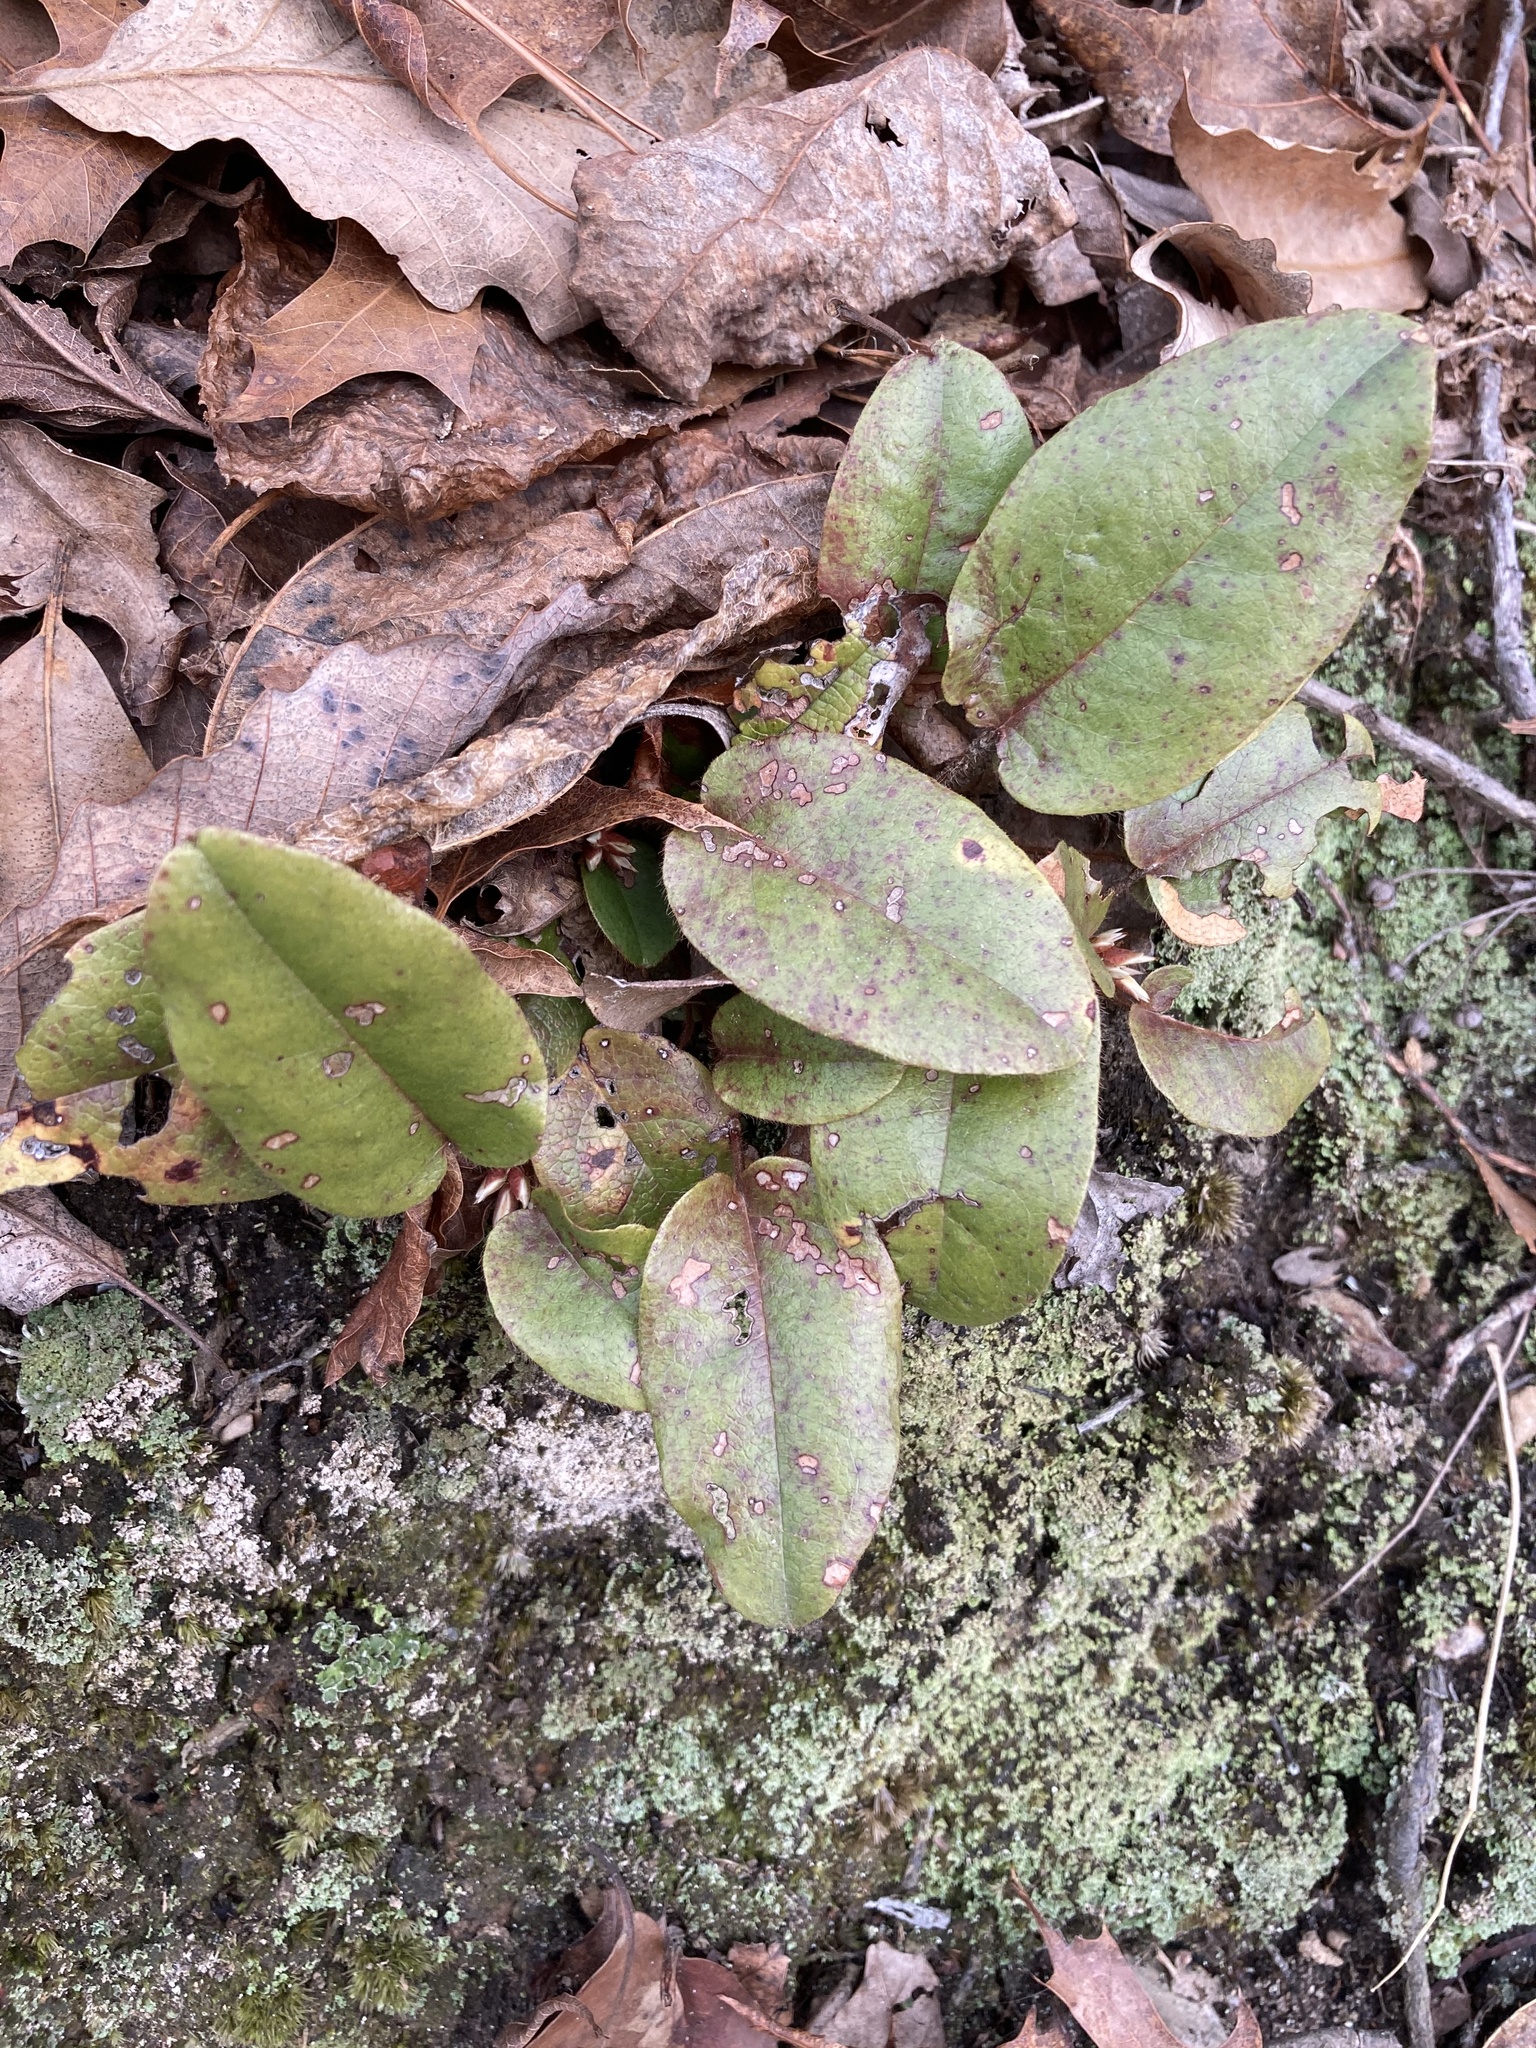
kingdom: Plantae
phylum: Tracheophyta
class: Magnoliopsida
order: Ericales
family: Ericaceae
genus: Epigaea
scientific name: Epigaea repens
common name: Gravelroot
